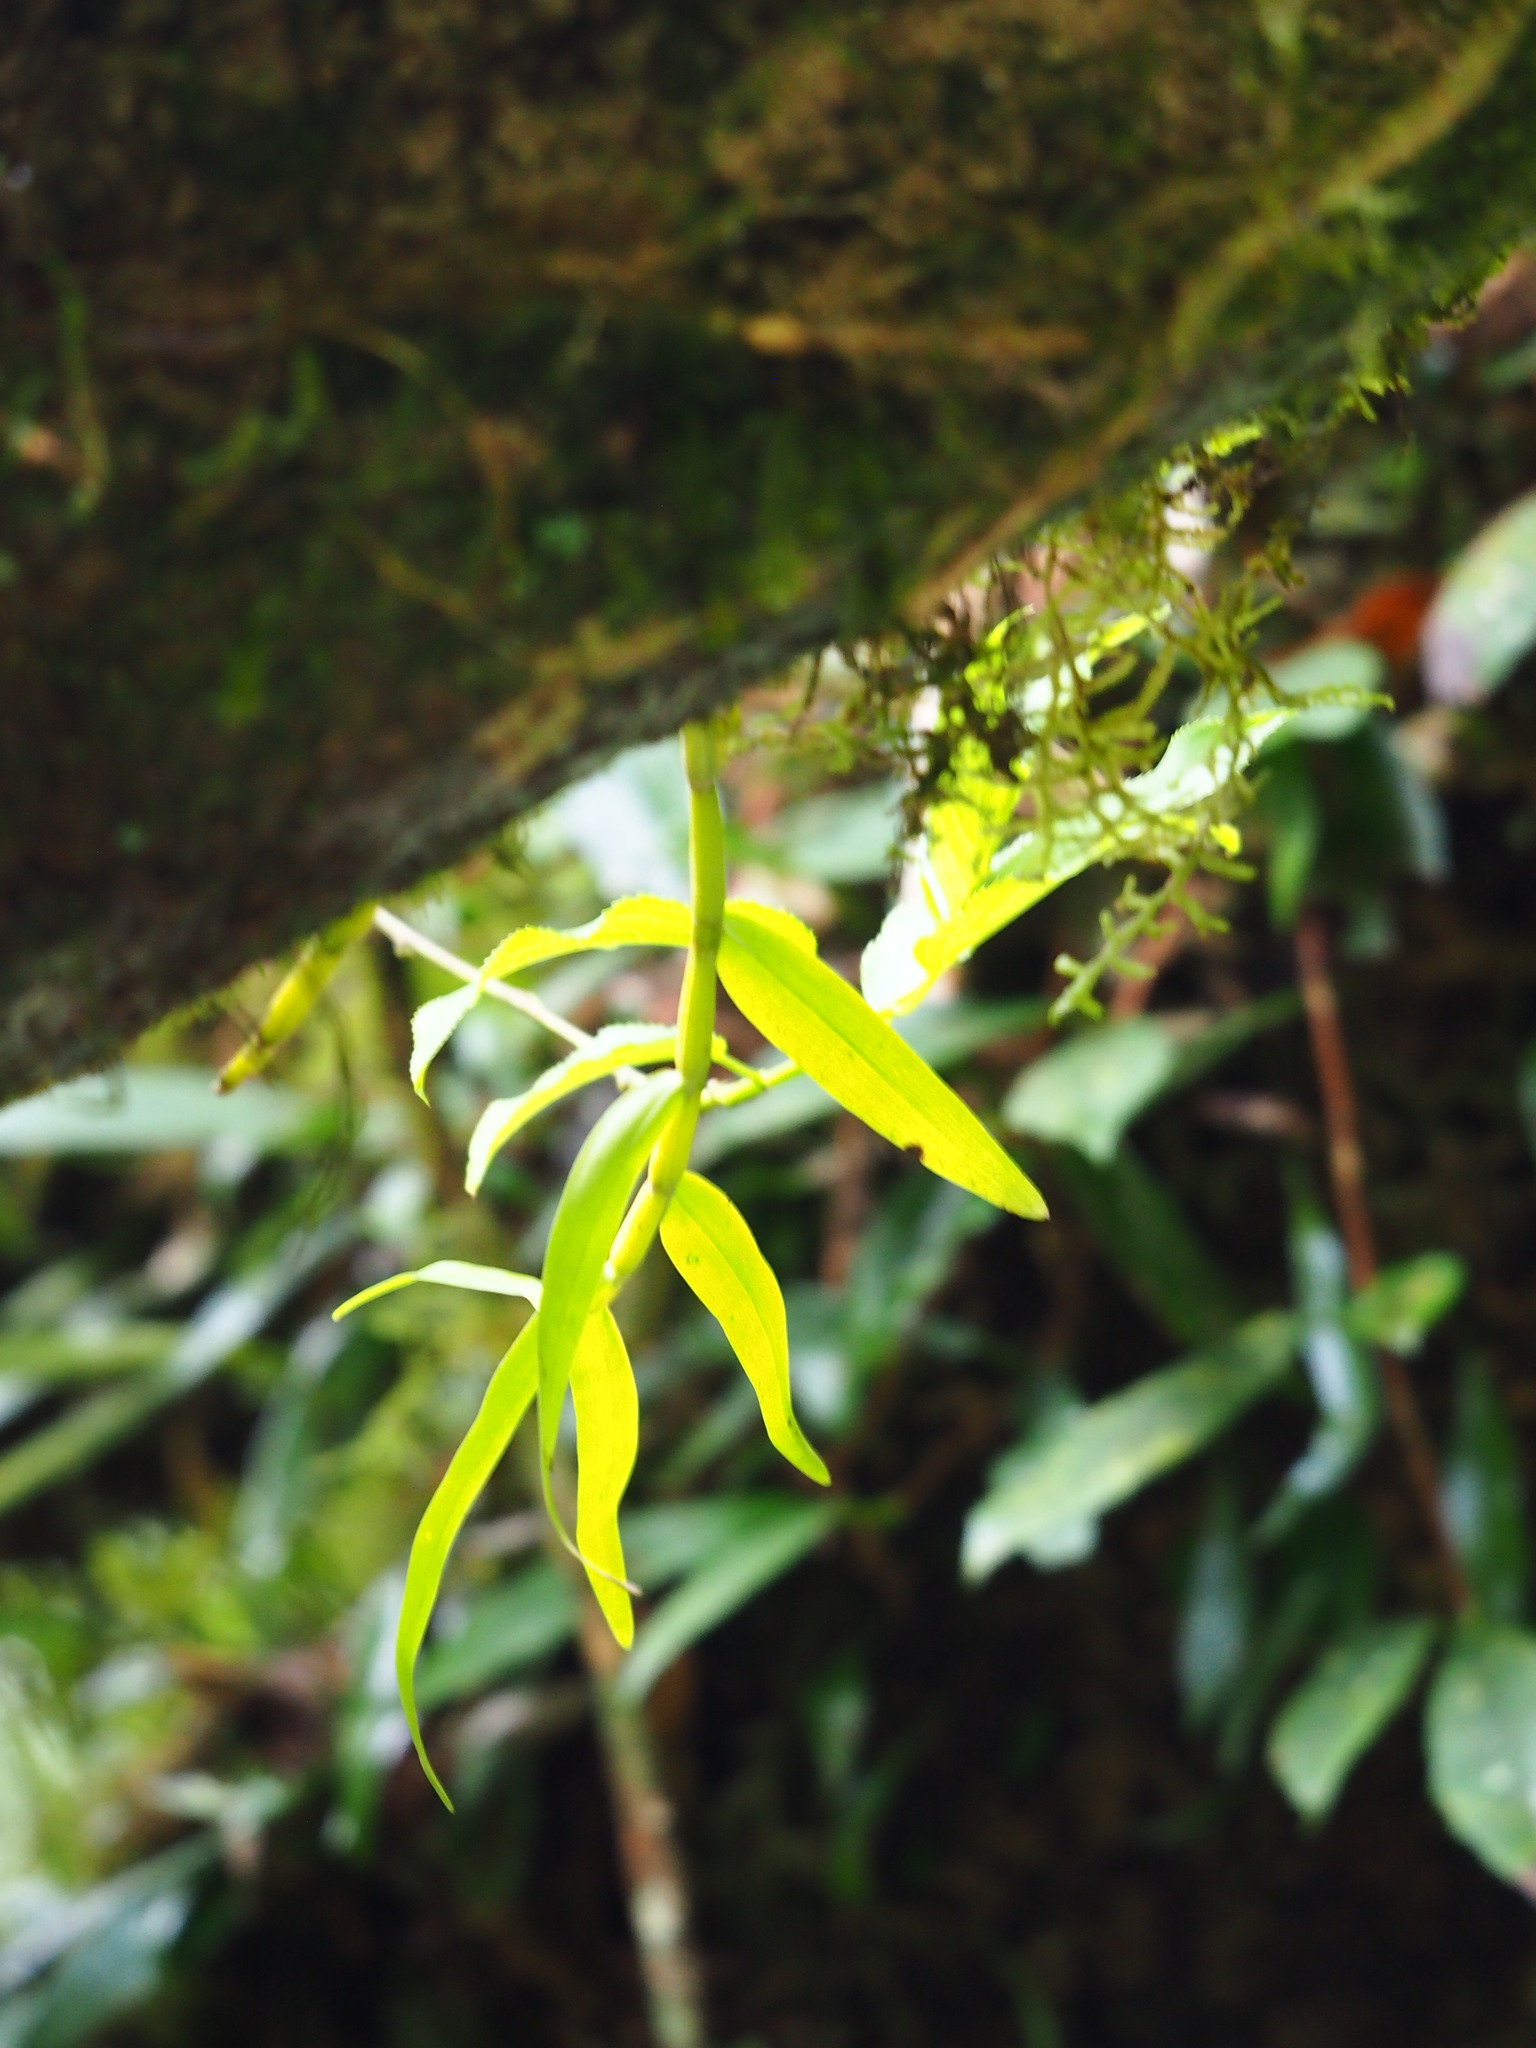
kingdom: Plantae
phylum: Tracheophyta
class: Liliopsida
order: Asparagales
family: Orchidaceae
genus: Dendrobium
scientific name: Dendrobium moniliforme
